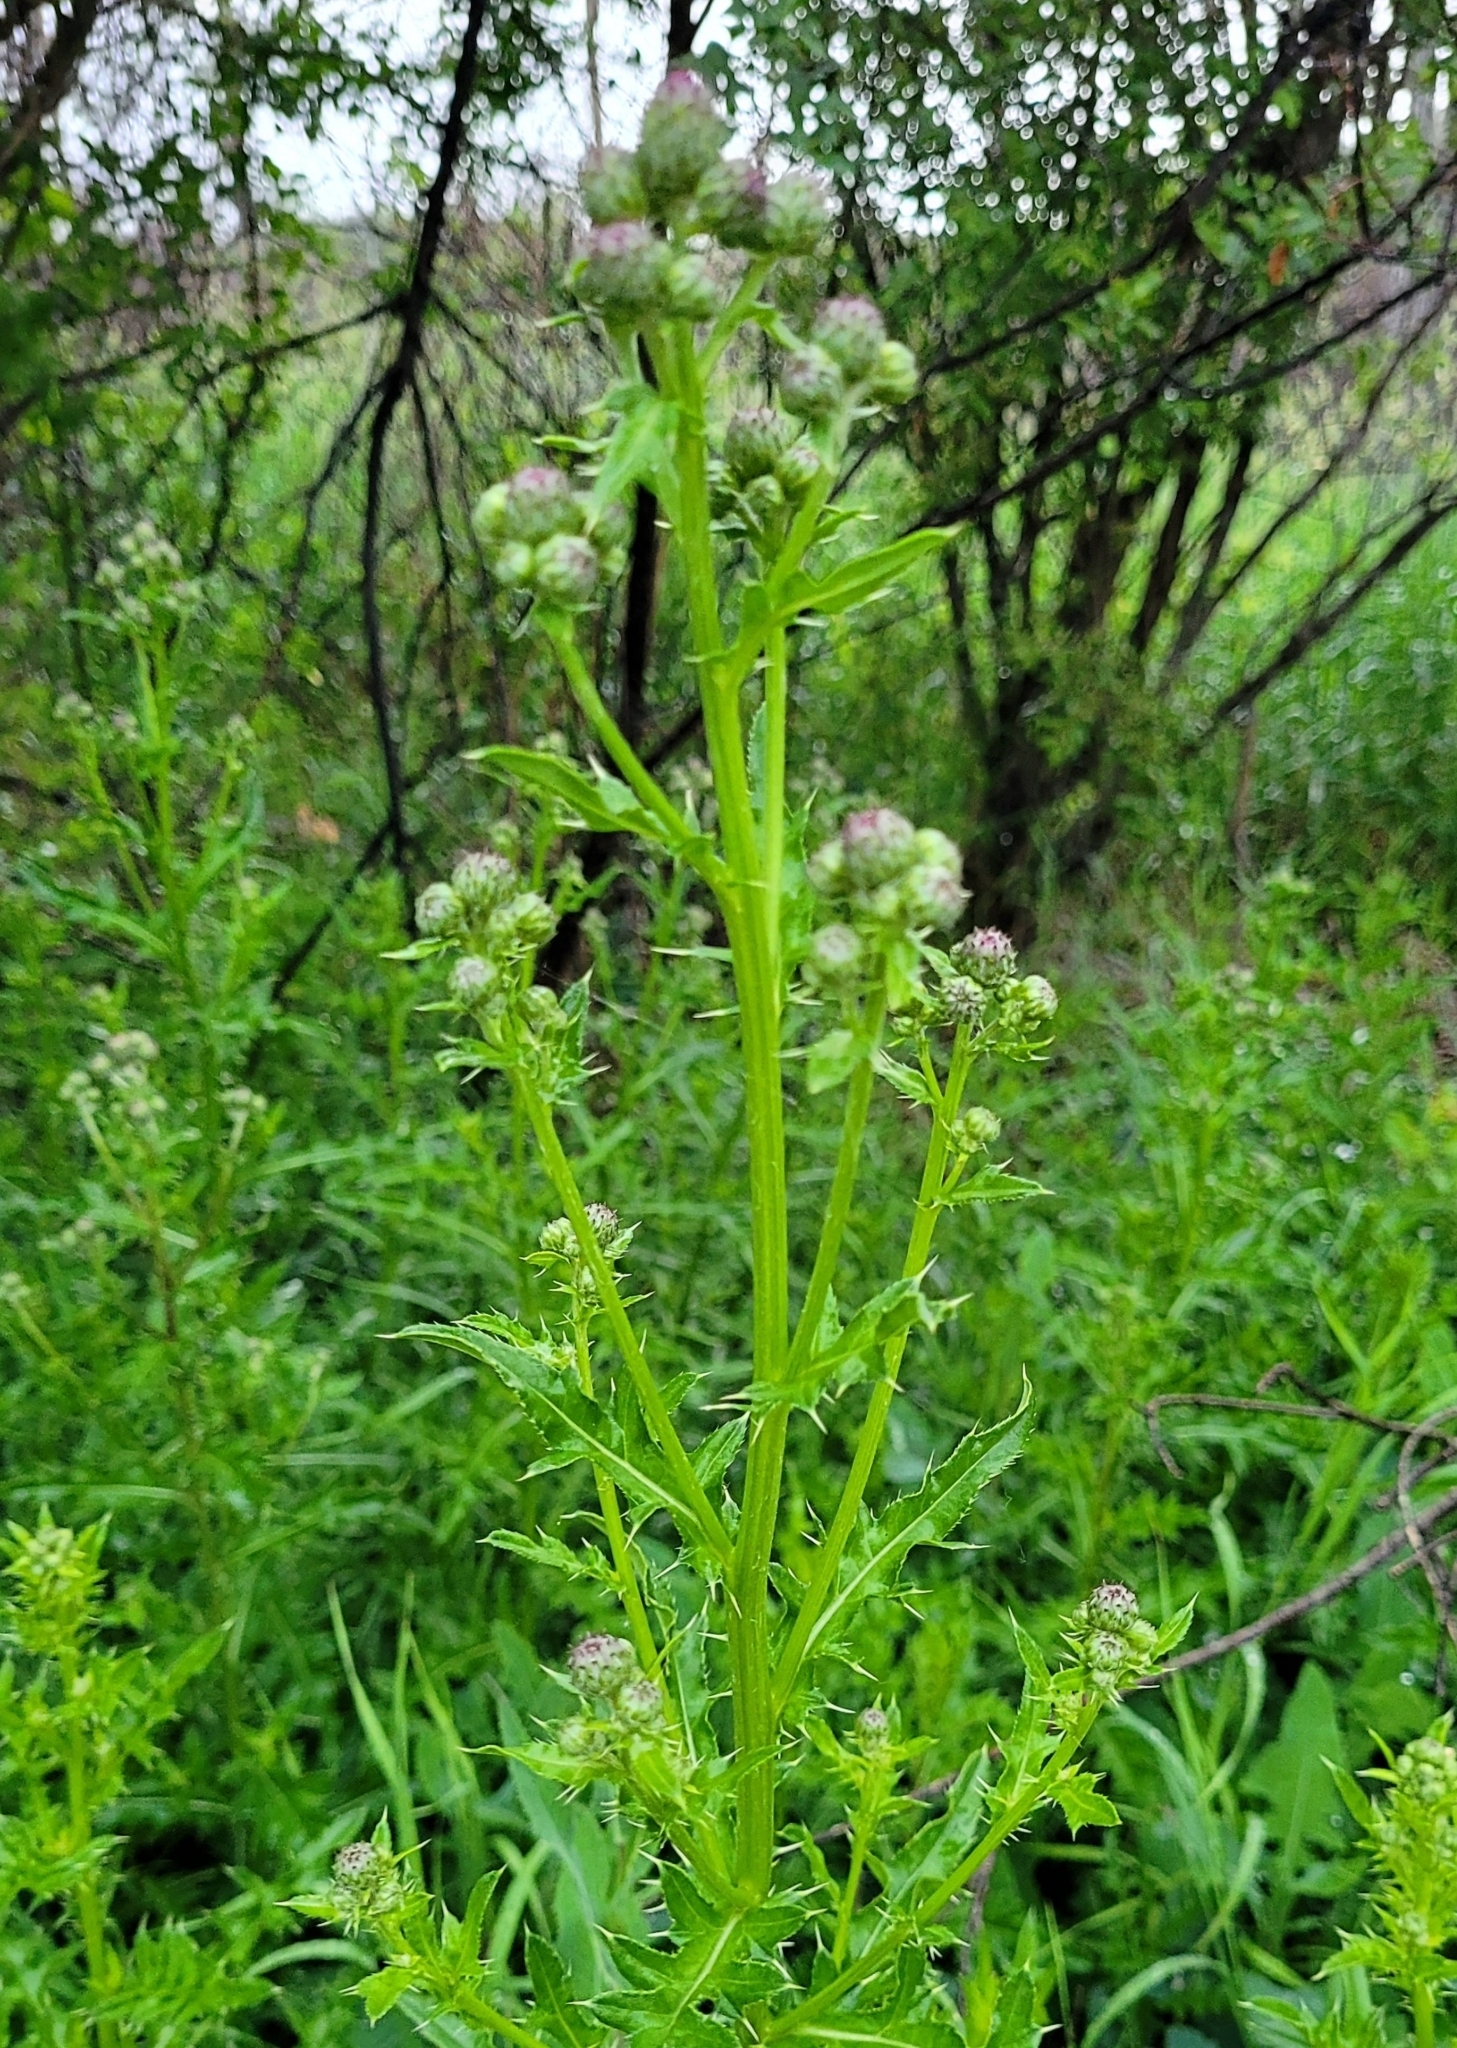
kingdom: Plantae
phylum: Tracheophyta
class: Magnoliopsida
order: Asterales
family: Asteraceae
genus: Cirsium
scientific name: Cirsium arvense
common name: Creeping thistle
